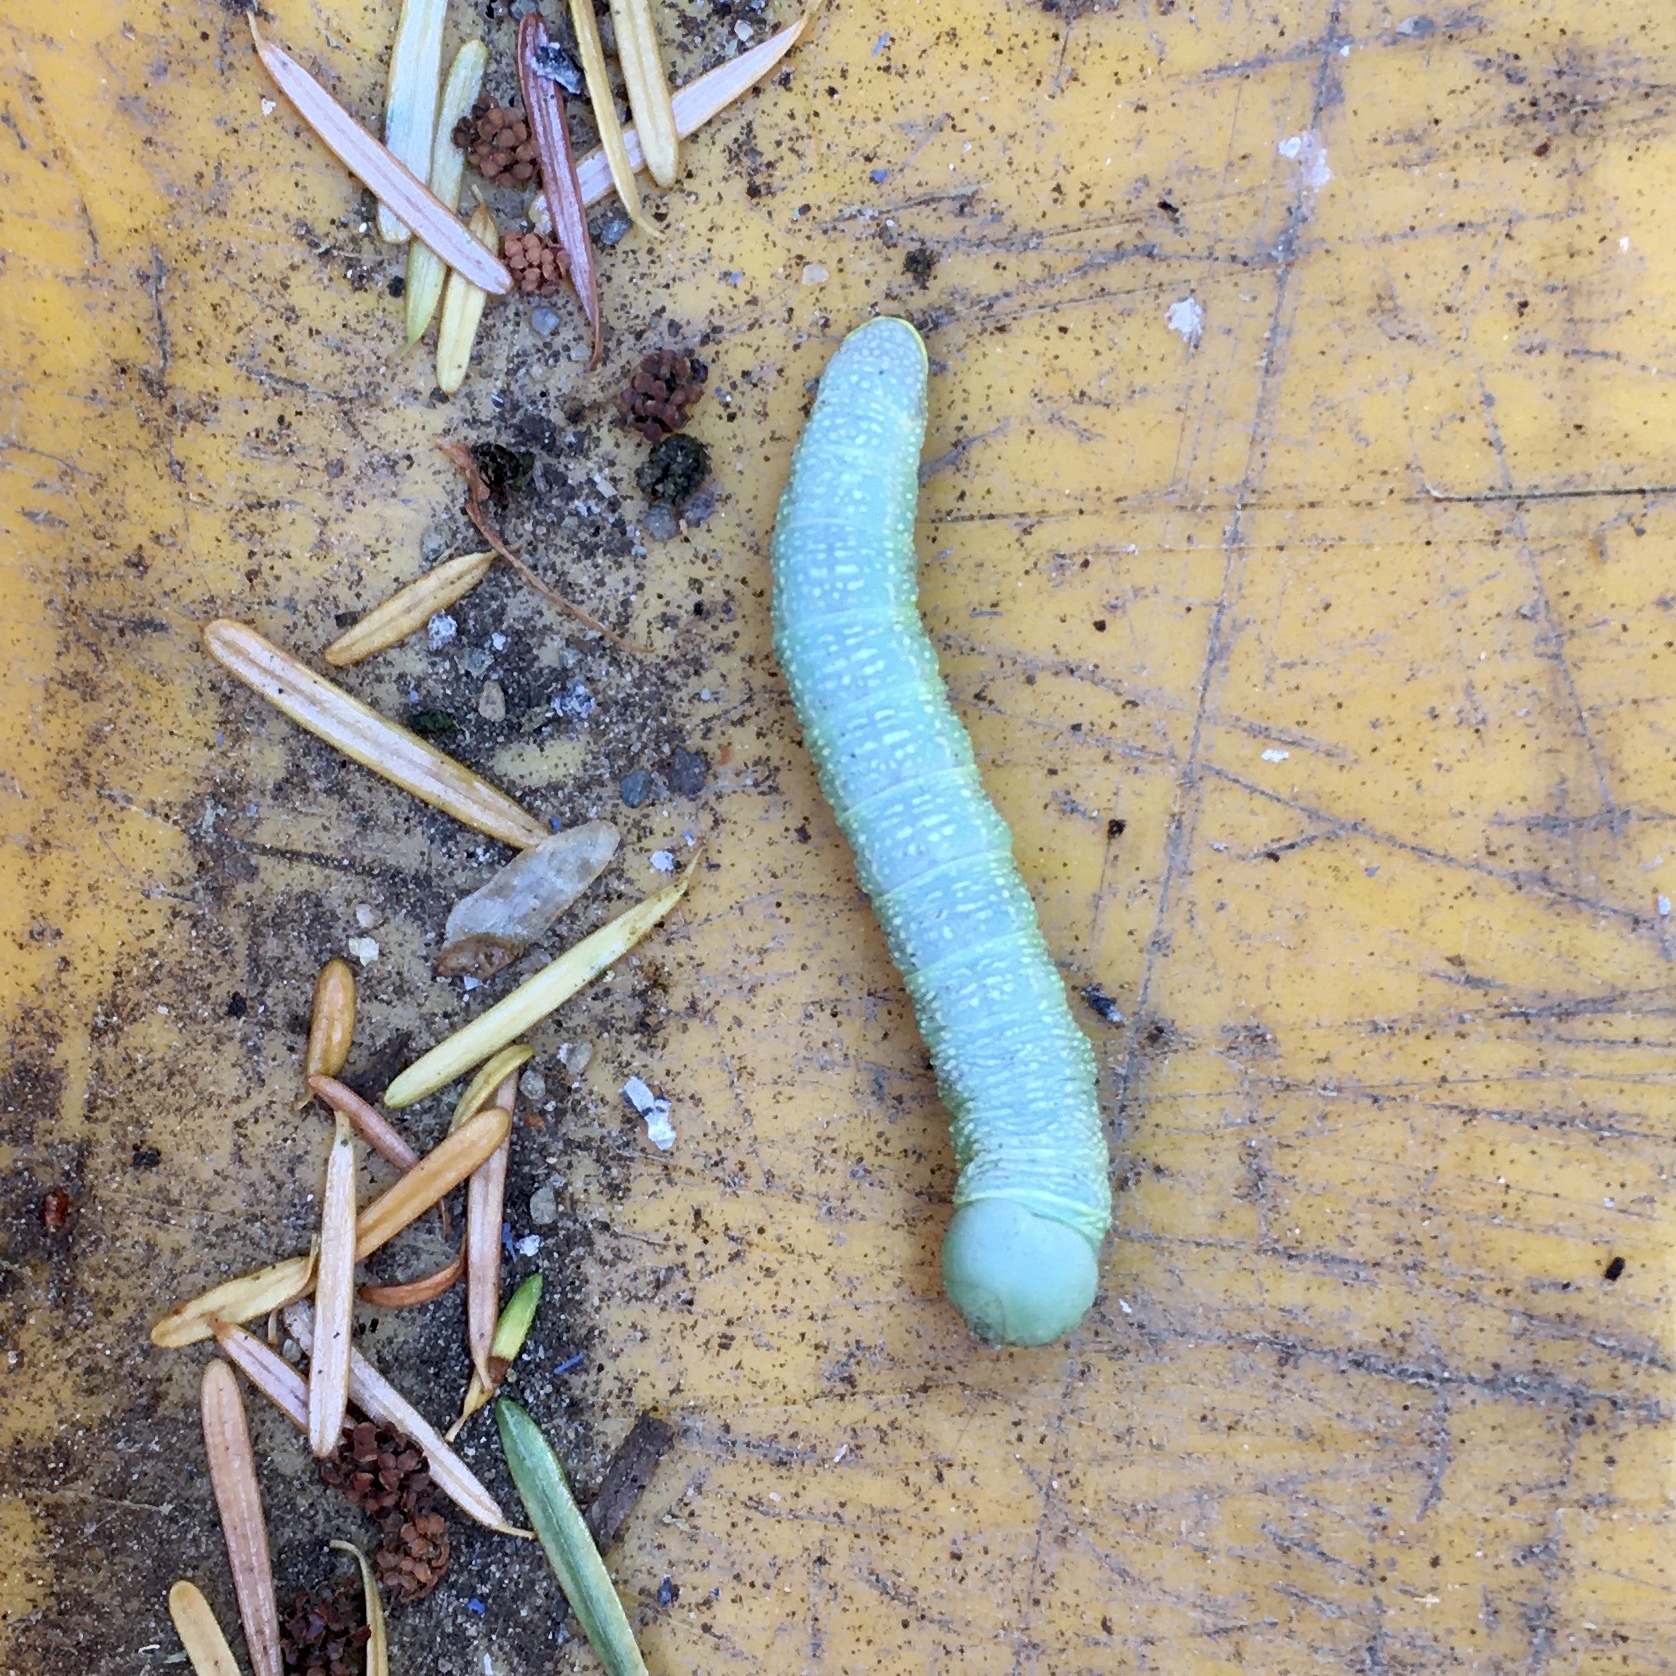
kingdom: Animalia
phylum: Arthropoda
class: Insecta
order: Lepidoptera
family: Notodontidae
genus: Nadata
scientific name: Nadata gibbosa
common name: White-dotted prominent
